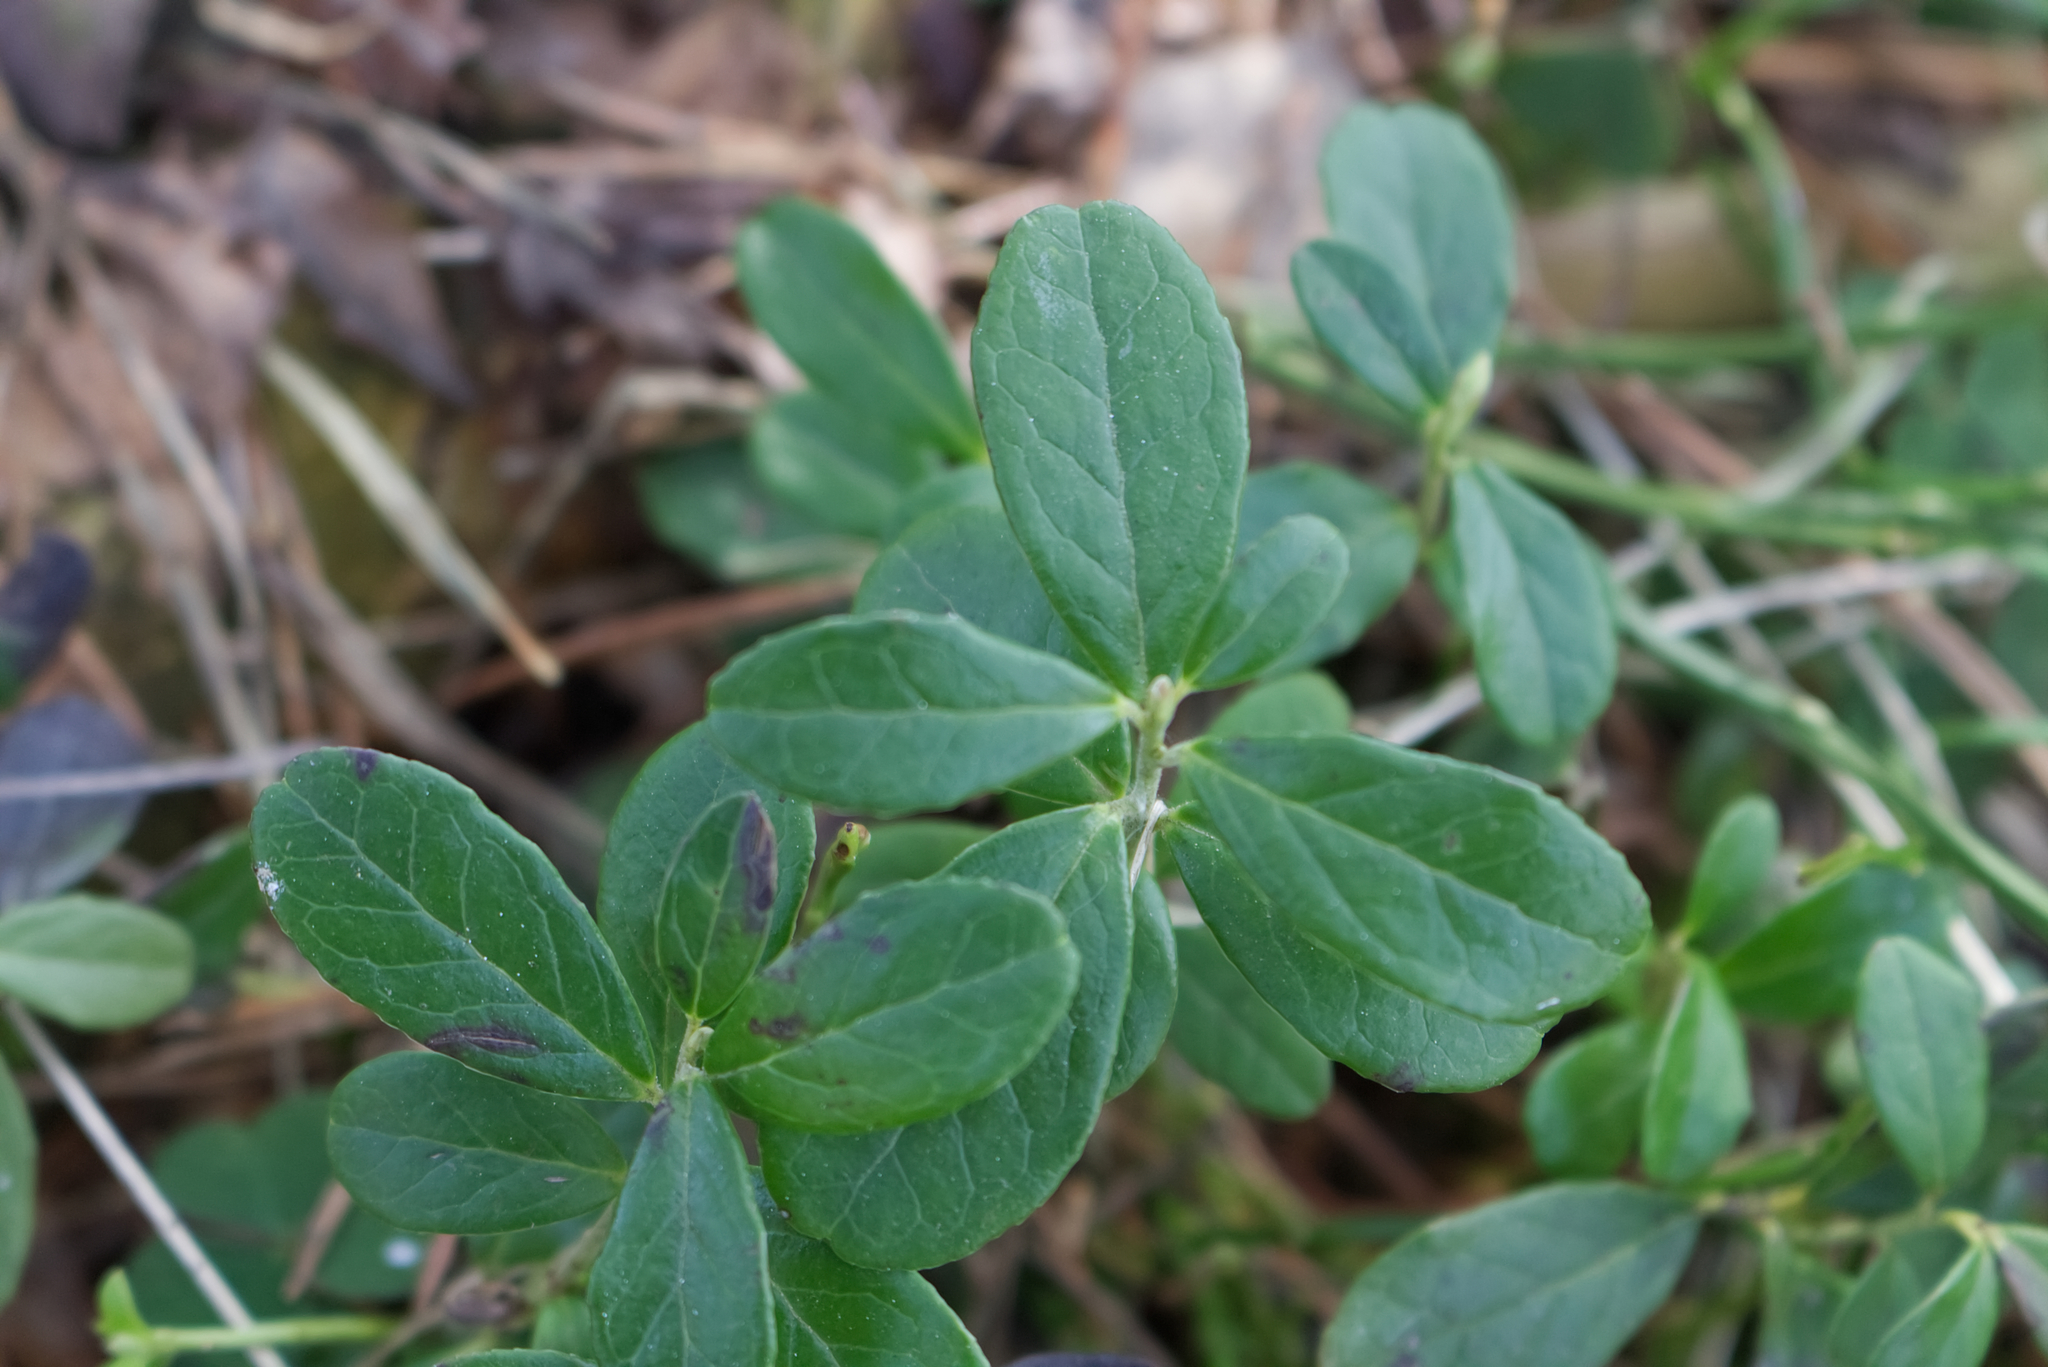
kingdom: Plantae
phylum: Tracheophyta
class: Magnoliopsida
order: Ericales
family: Ericaceae
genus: Vaccinium
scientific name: Vaccinium vitis-idaea
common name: Cowberry
